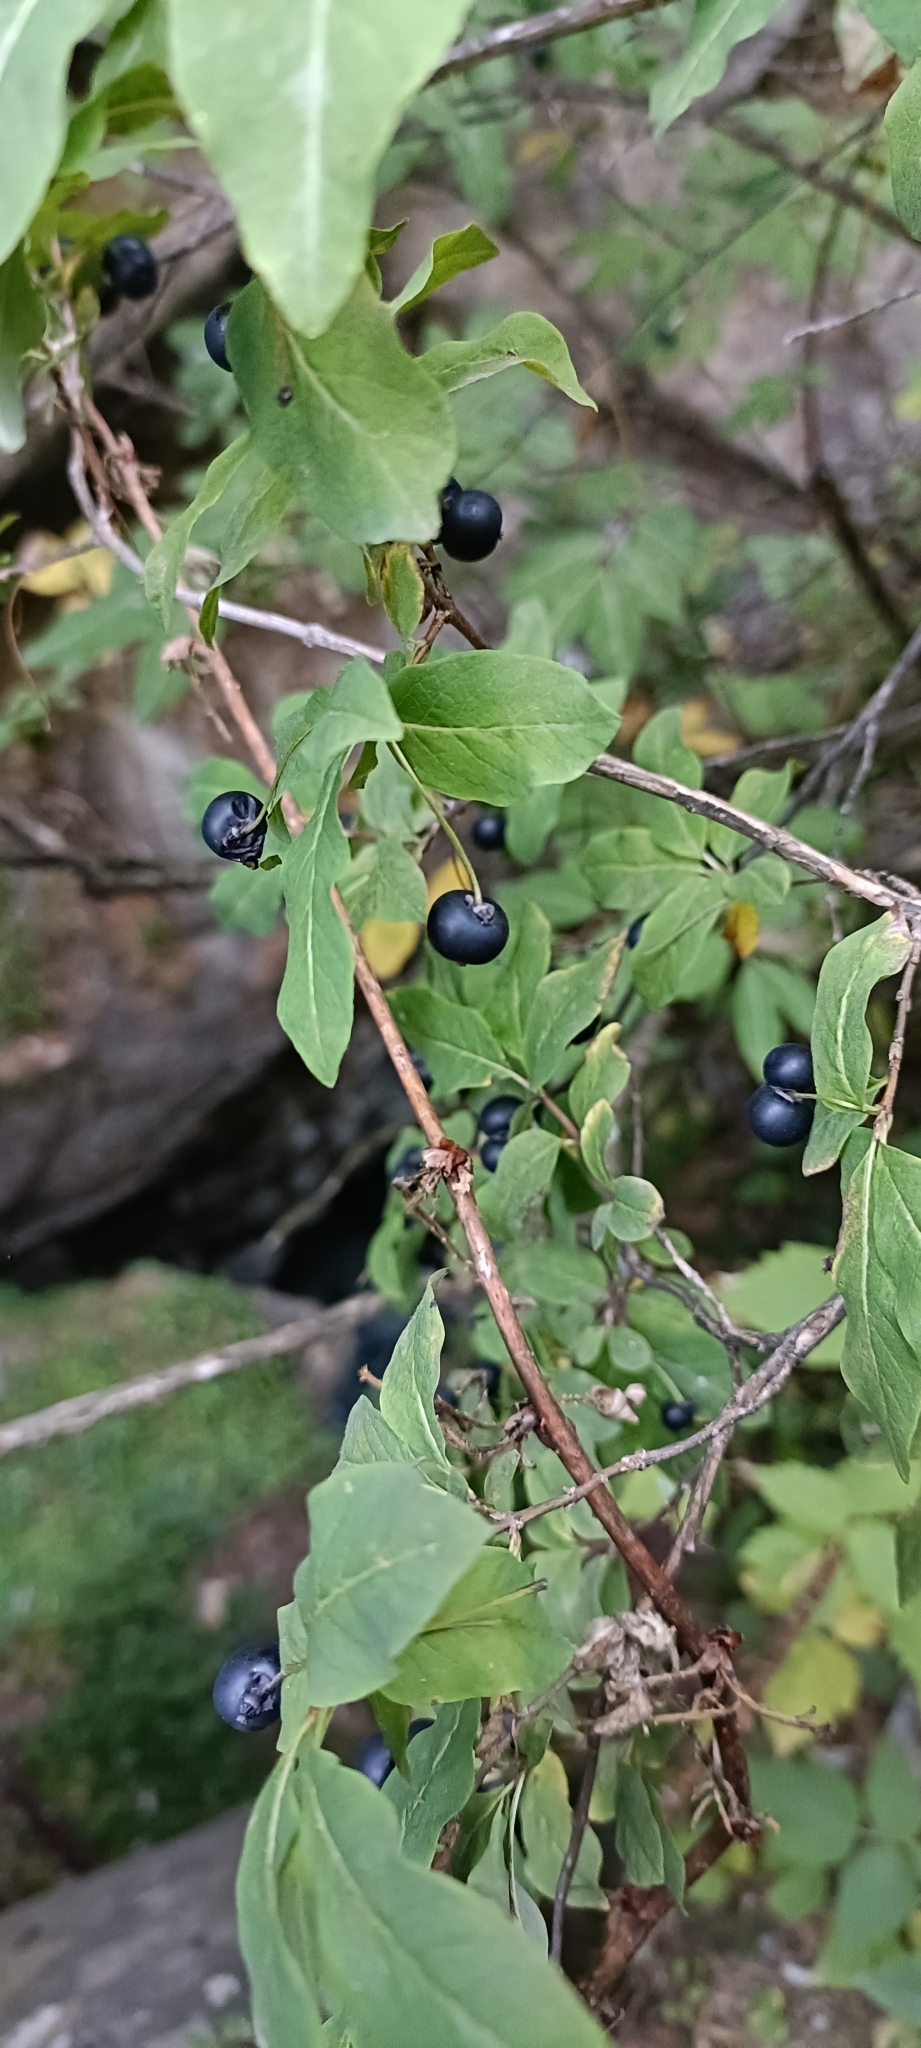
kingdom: Plantae
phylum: Tracheophyta
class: Magnoliopsida
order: Dipsacales
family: Caprifoliaceae
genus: Lonicera
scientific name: Lonicera nigra
